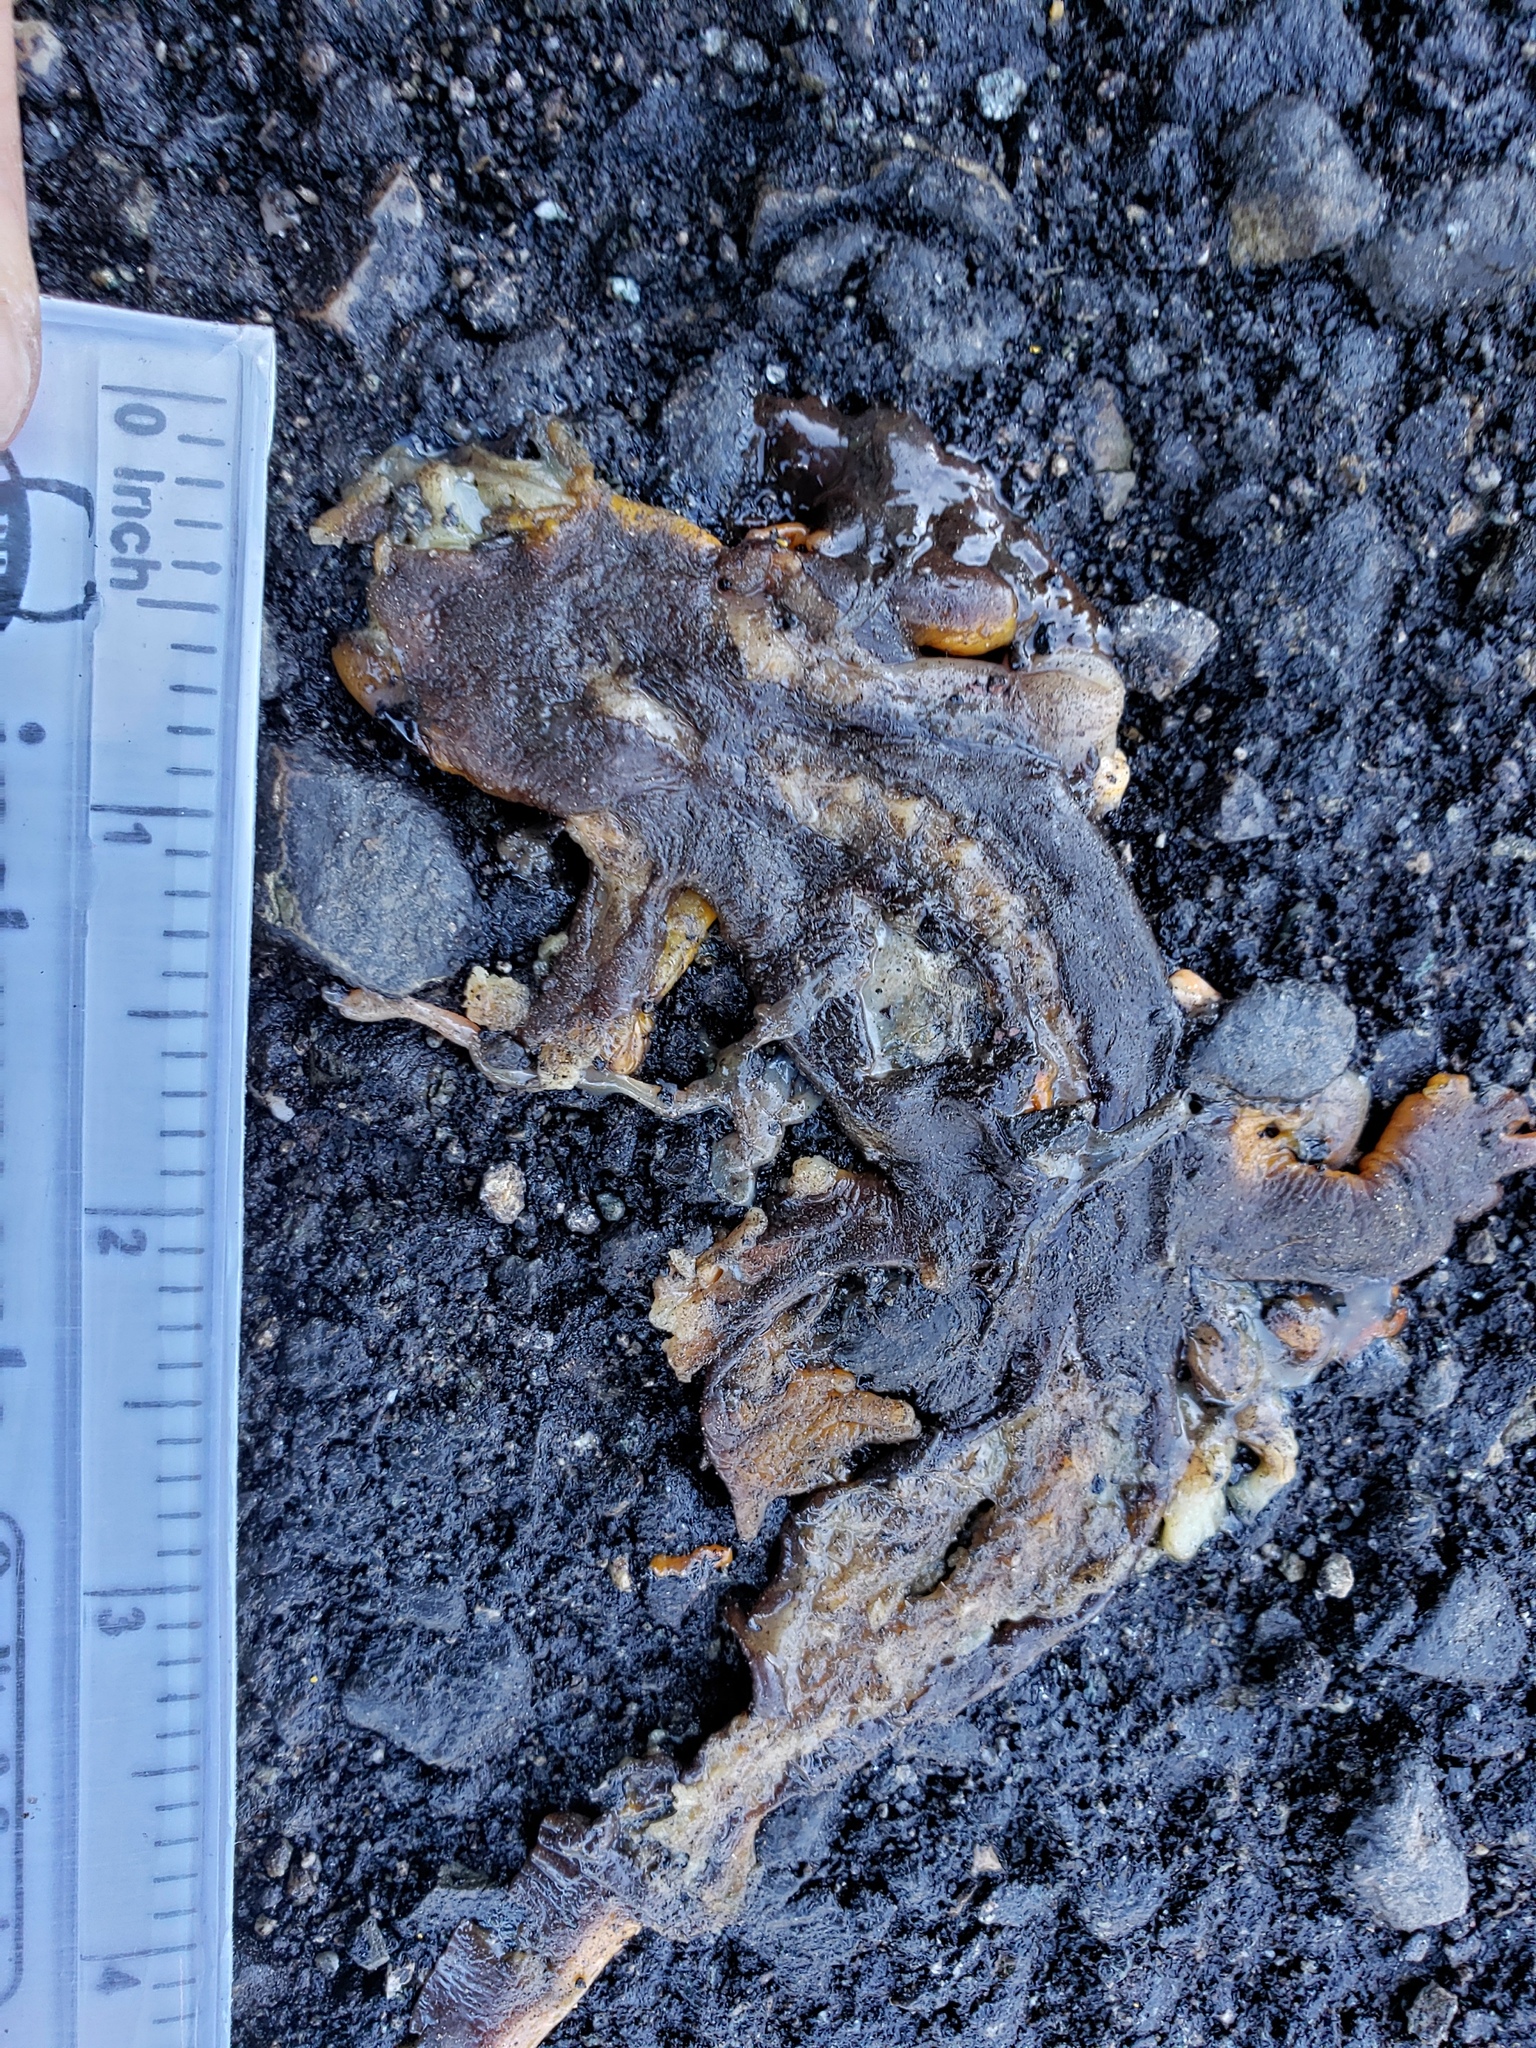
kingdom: Animalia
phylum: Chordata
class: Amphibia
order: Caudata
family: Salamandridae
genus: Taricha
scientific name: Taricha
